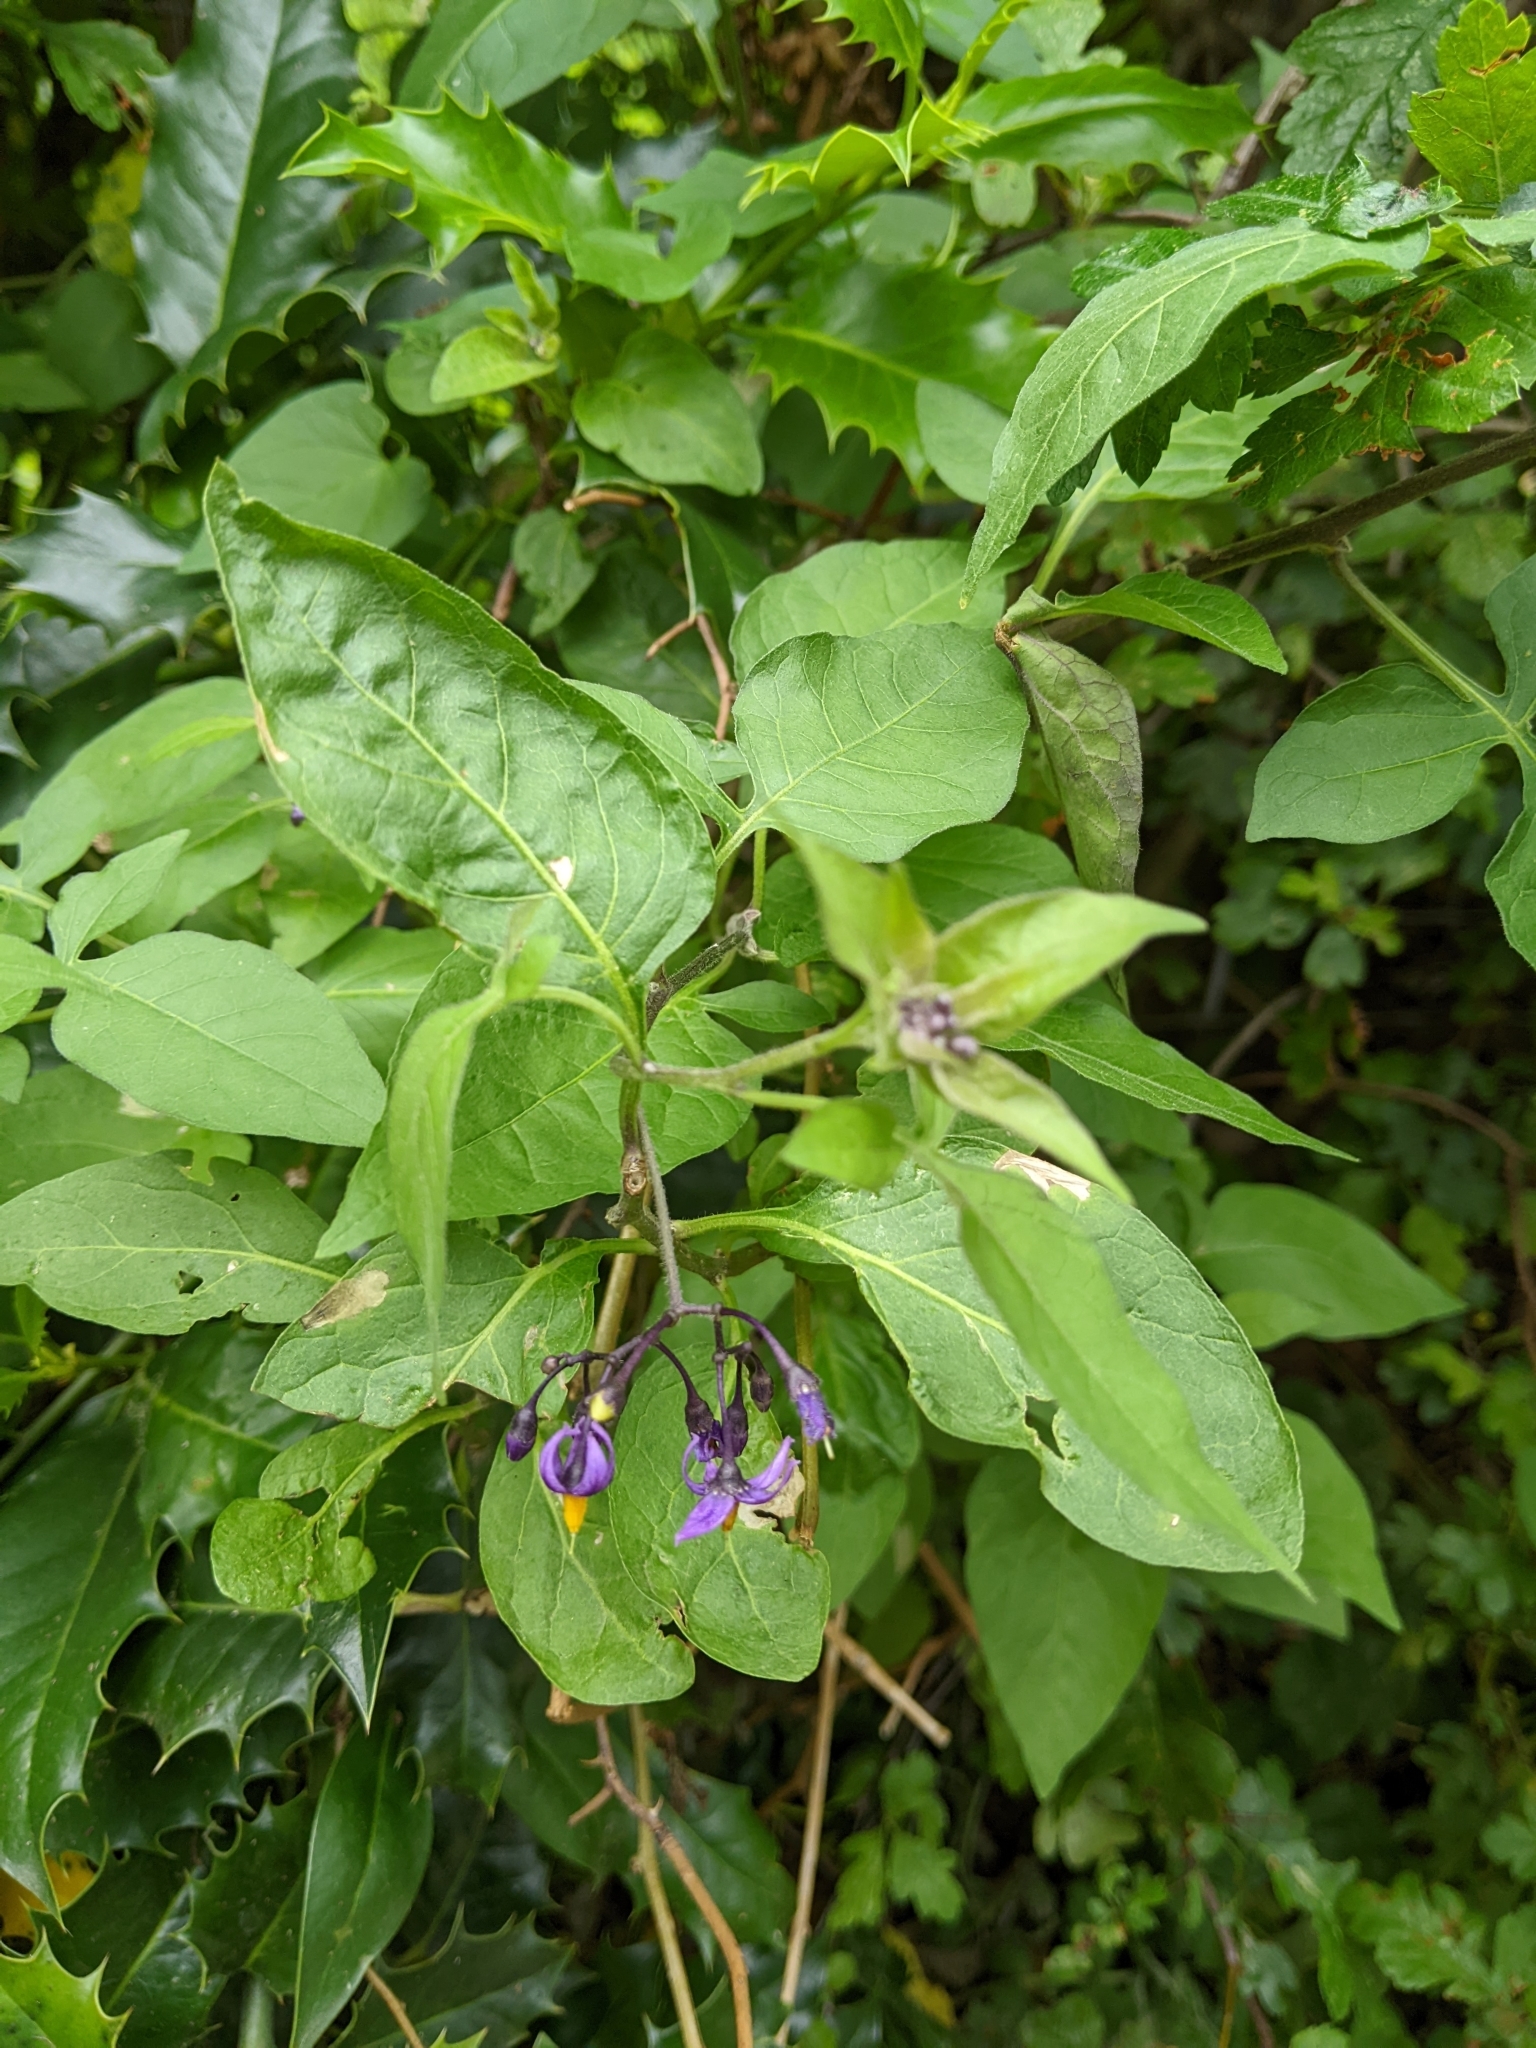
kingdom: Plantae
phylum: Tracheophyta
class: Magnoliopsida
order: Solanales
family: Solanaceae
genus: Solanum
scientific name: Solanum dulcamara
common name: Climbing nightshade
